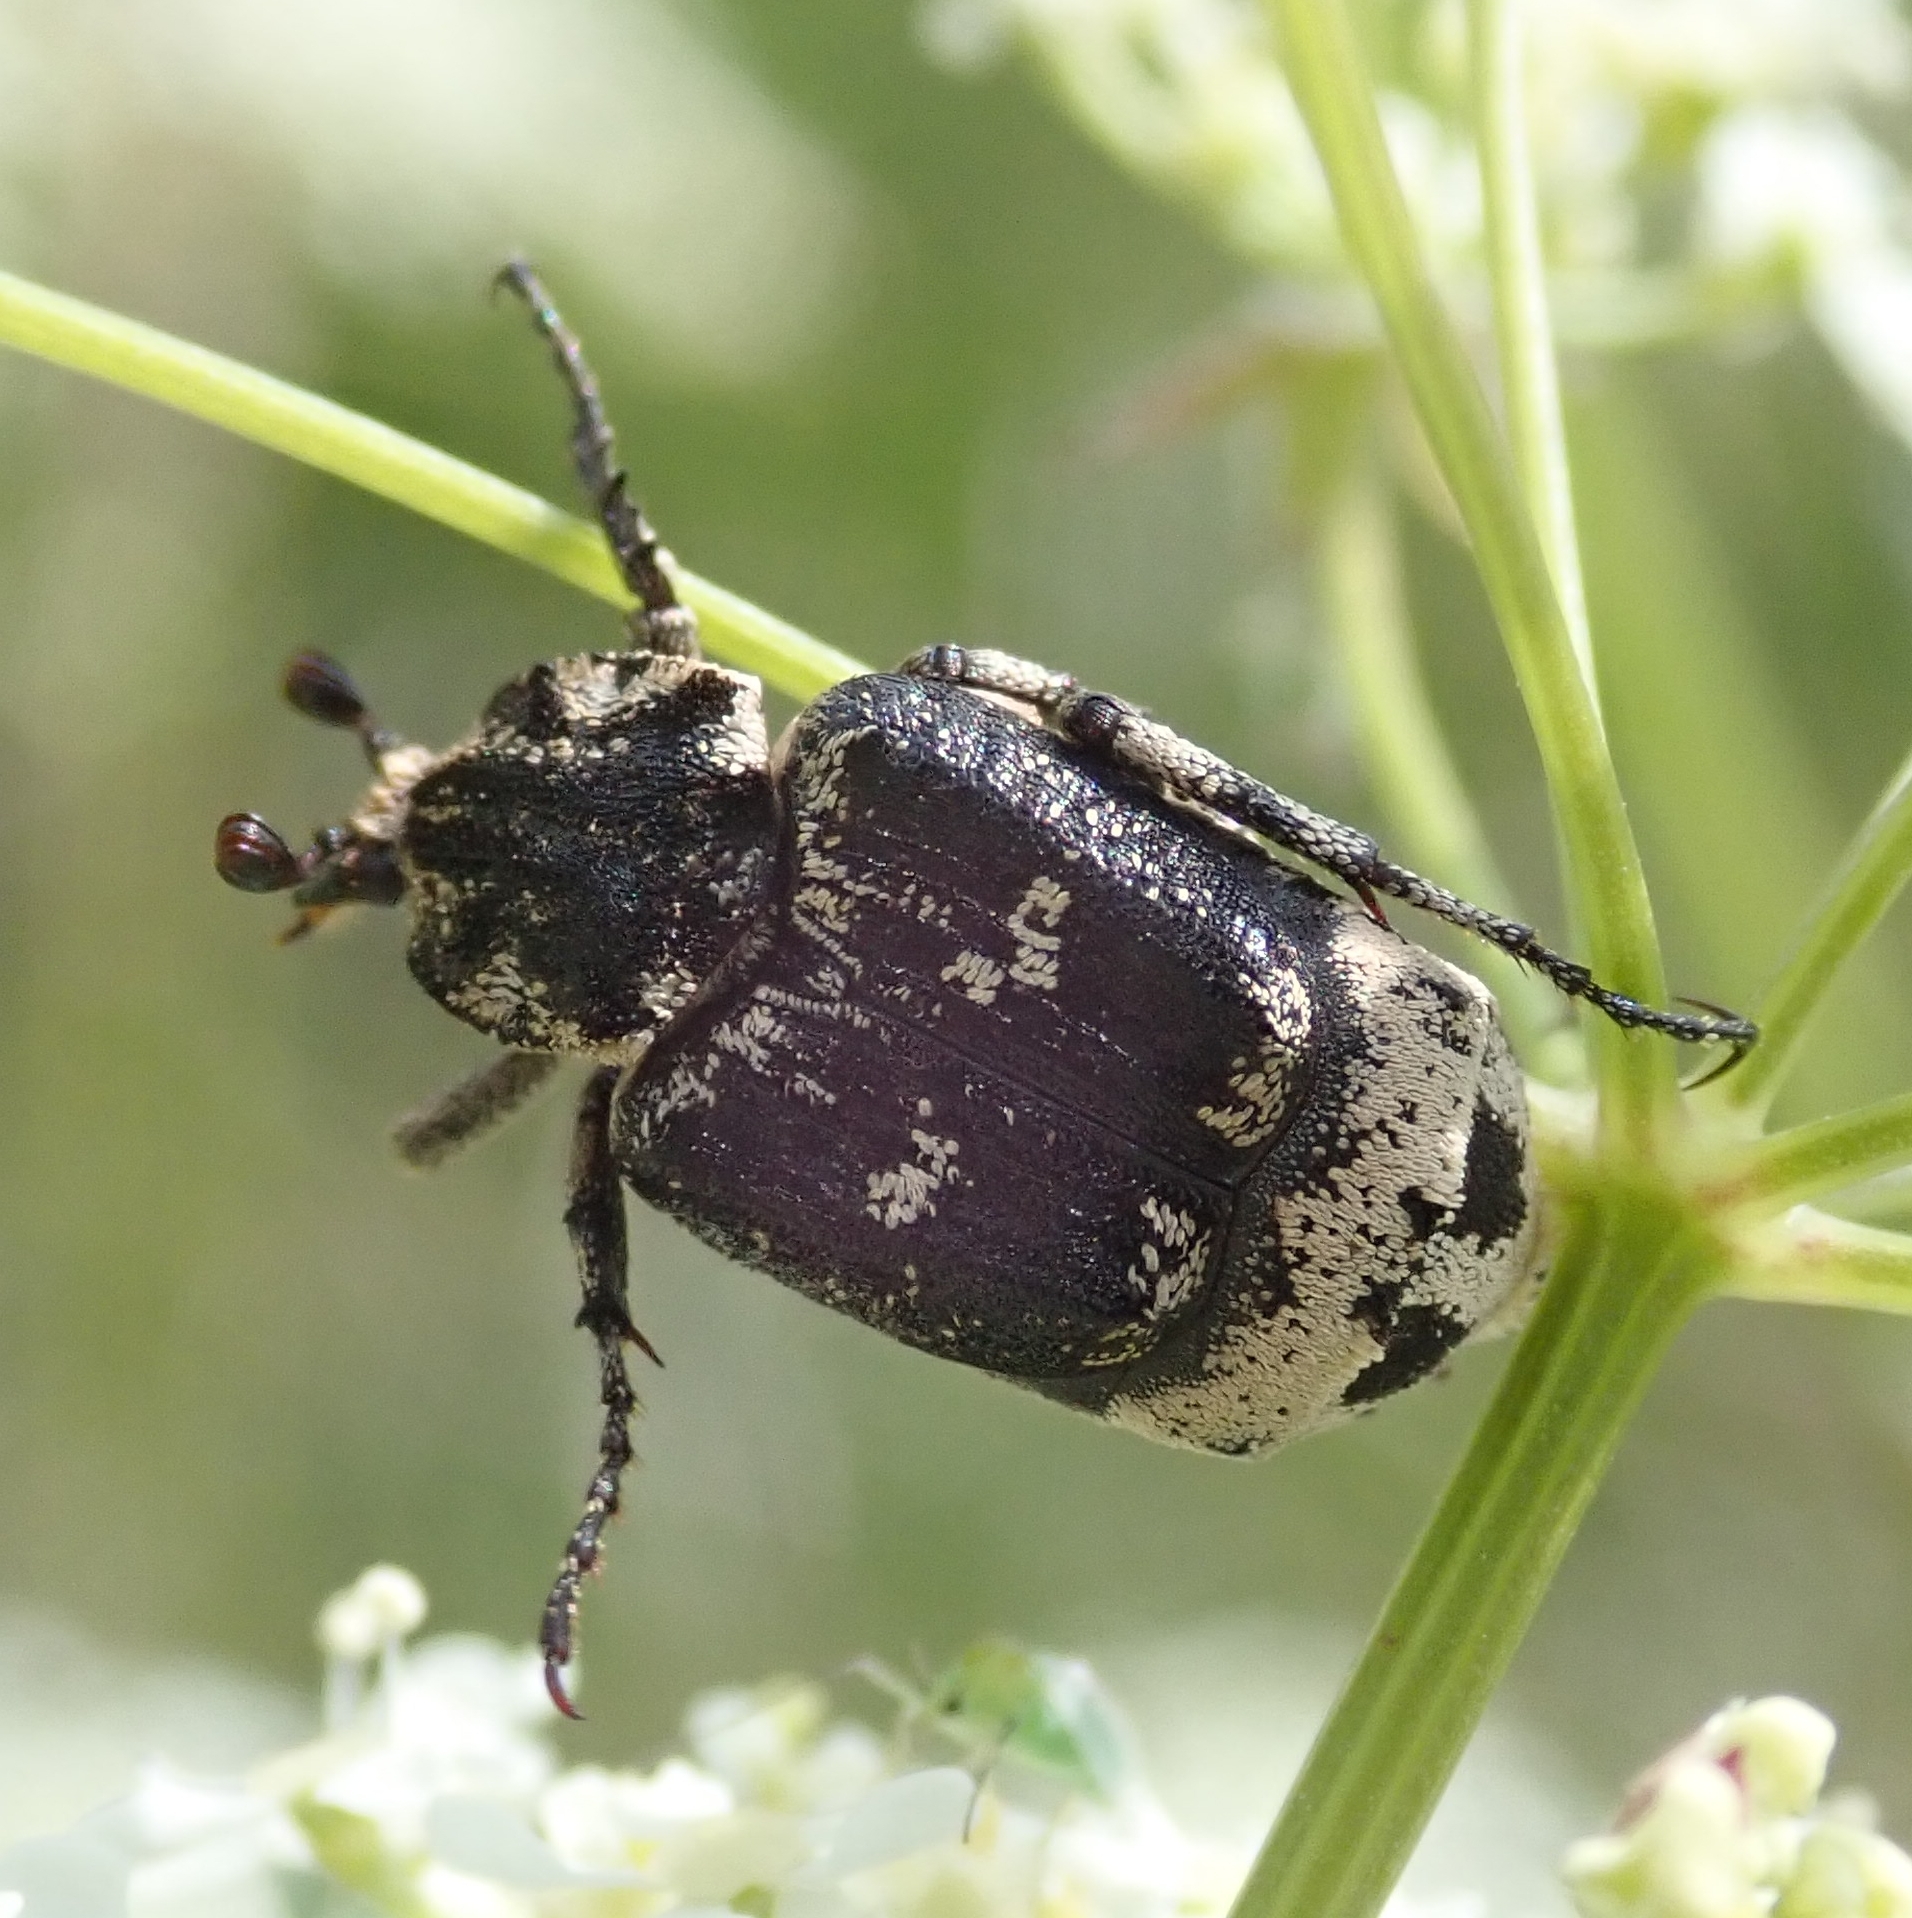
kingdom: Animalia
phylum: Arthropoda
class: Insecta
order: Coleoptera
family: Scarabaeidae
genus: Valgus
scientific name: Valgus hemipterus
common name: Bug flower chafer
